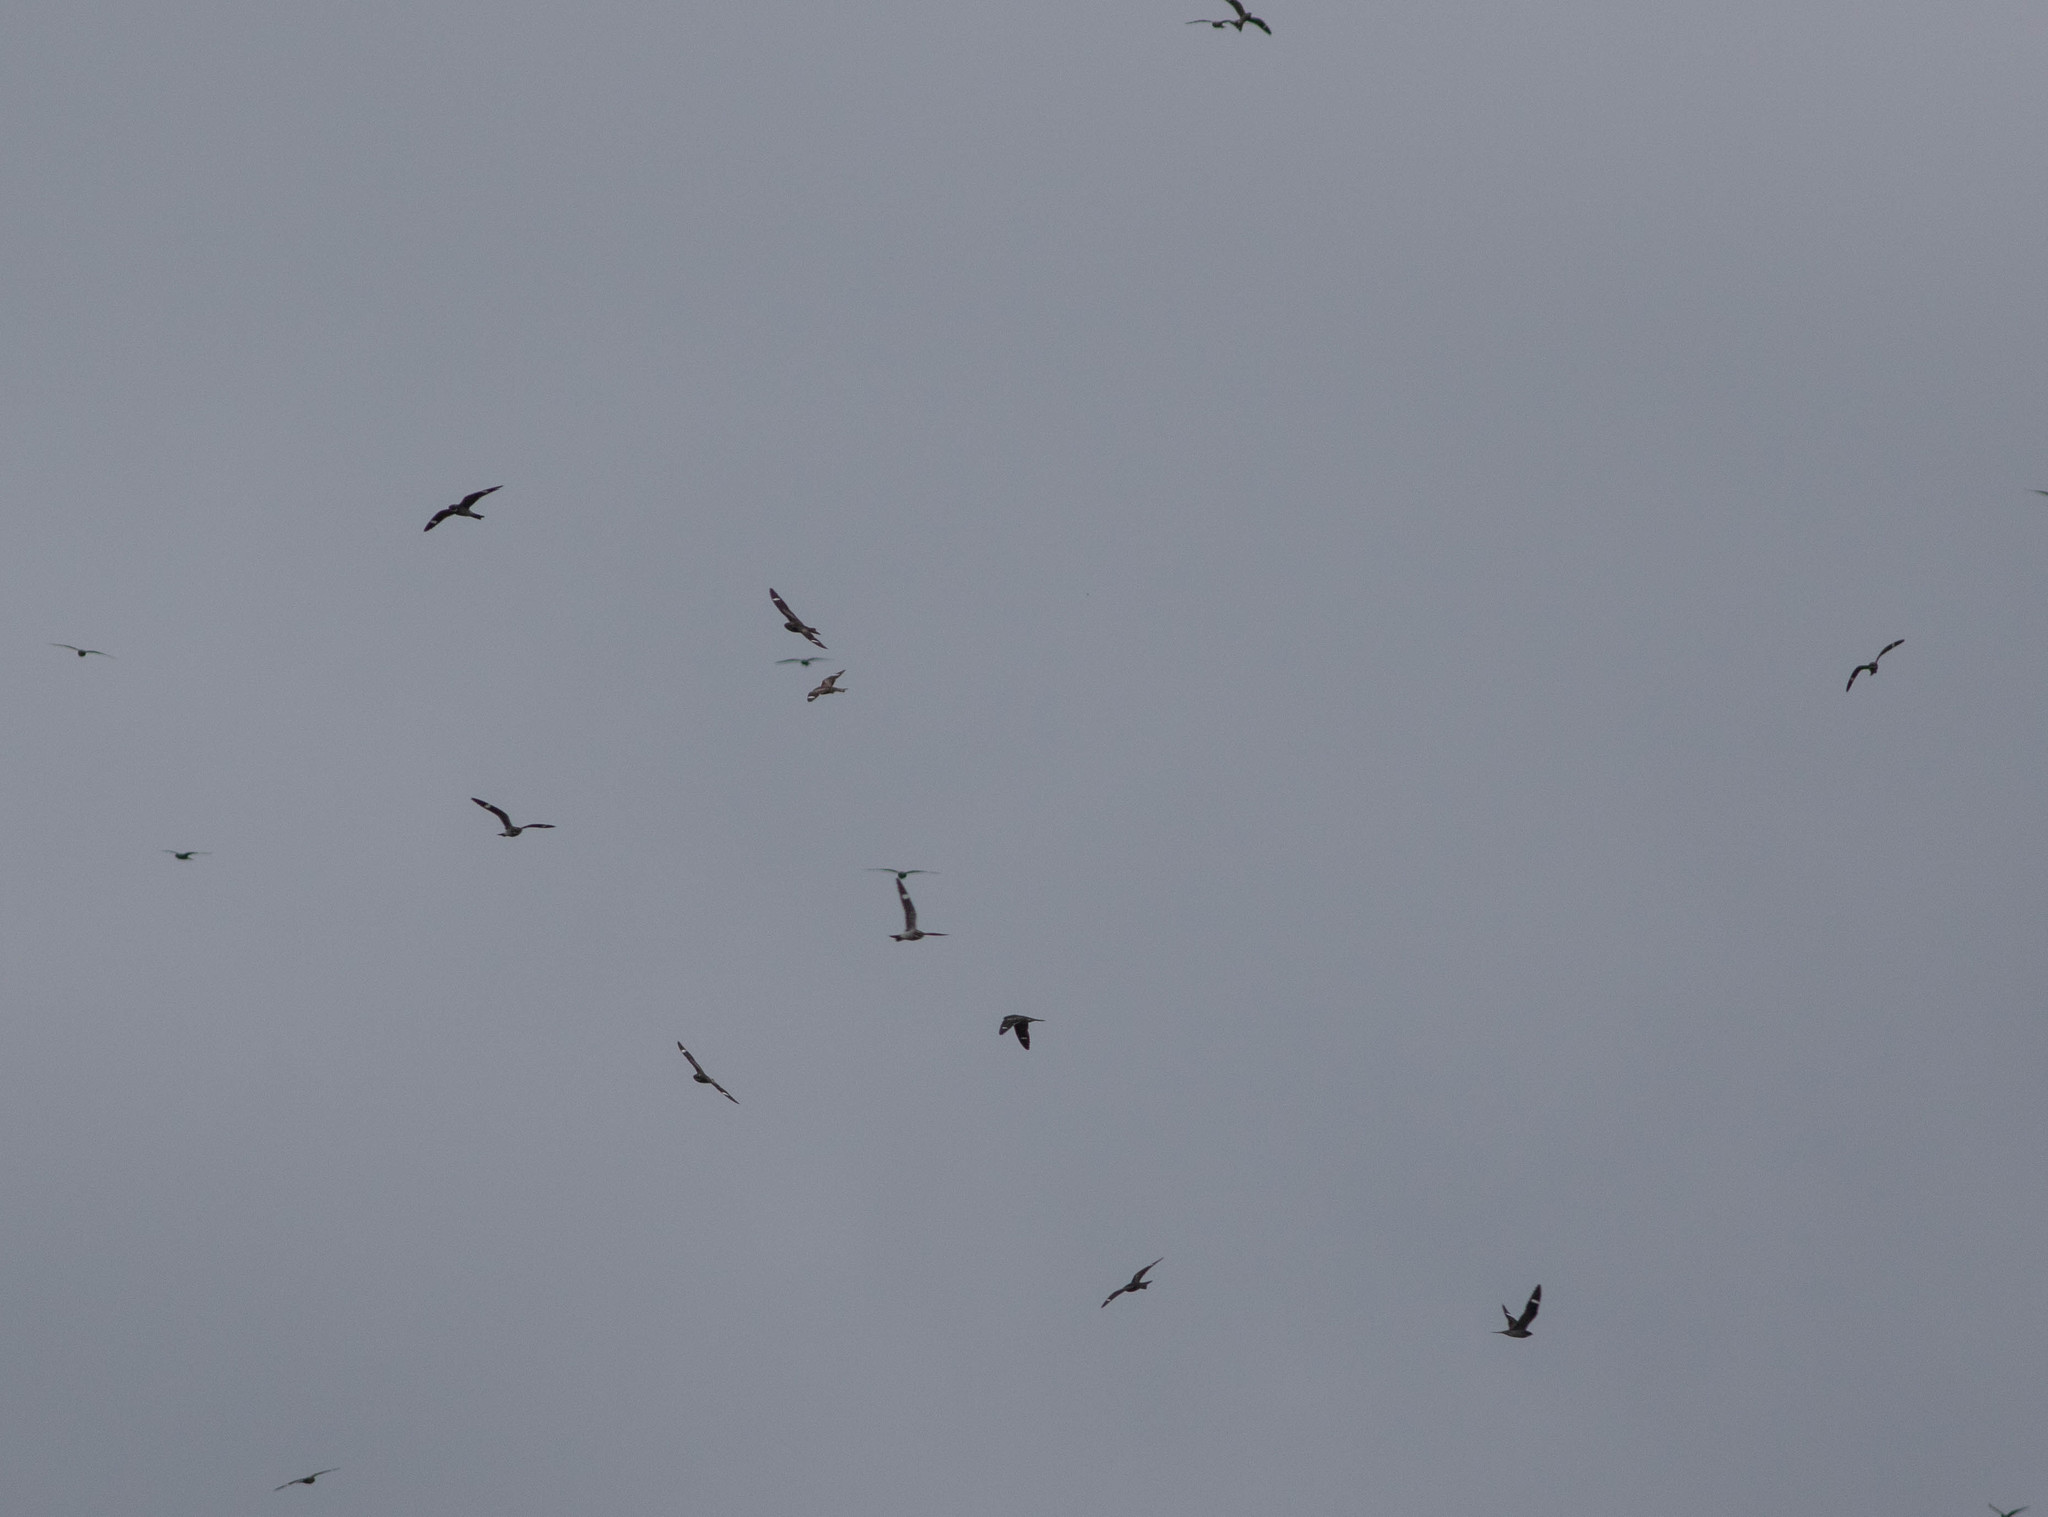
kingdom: Animalia
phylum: Chordata
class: Aves
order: Caprimulgiformes
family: Caprimulgidae
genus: Chordeiles
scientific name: Chordeiles minor
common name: Common nighthawk
